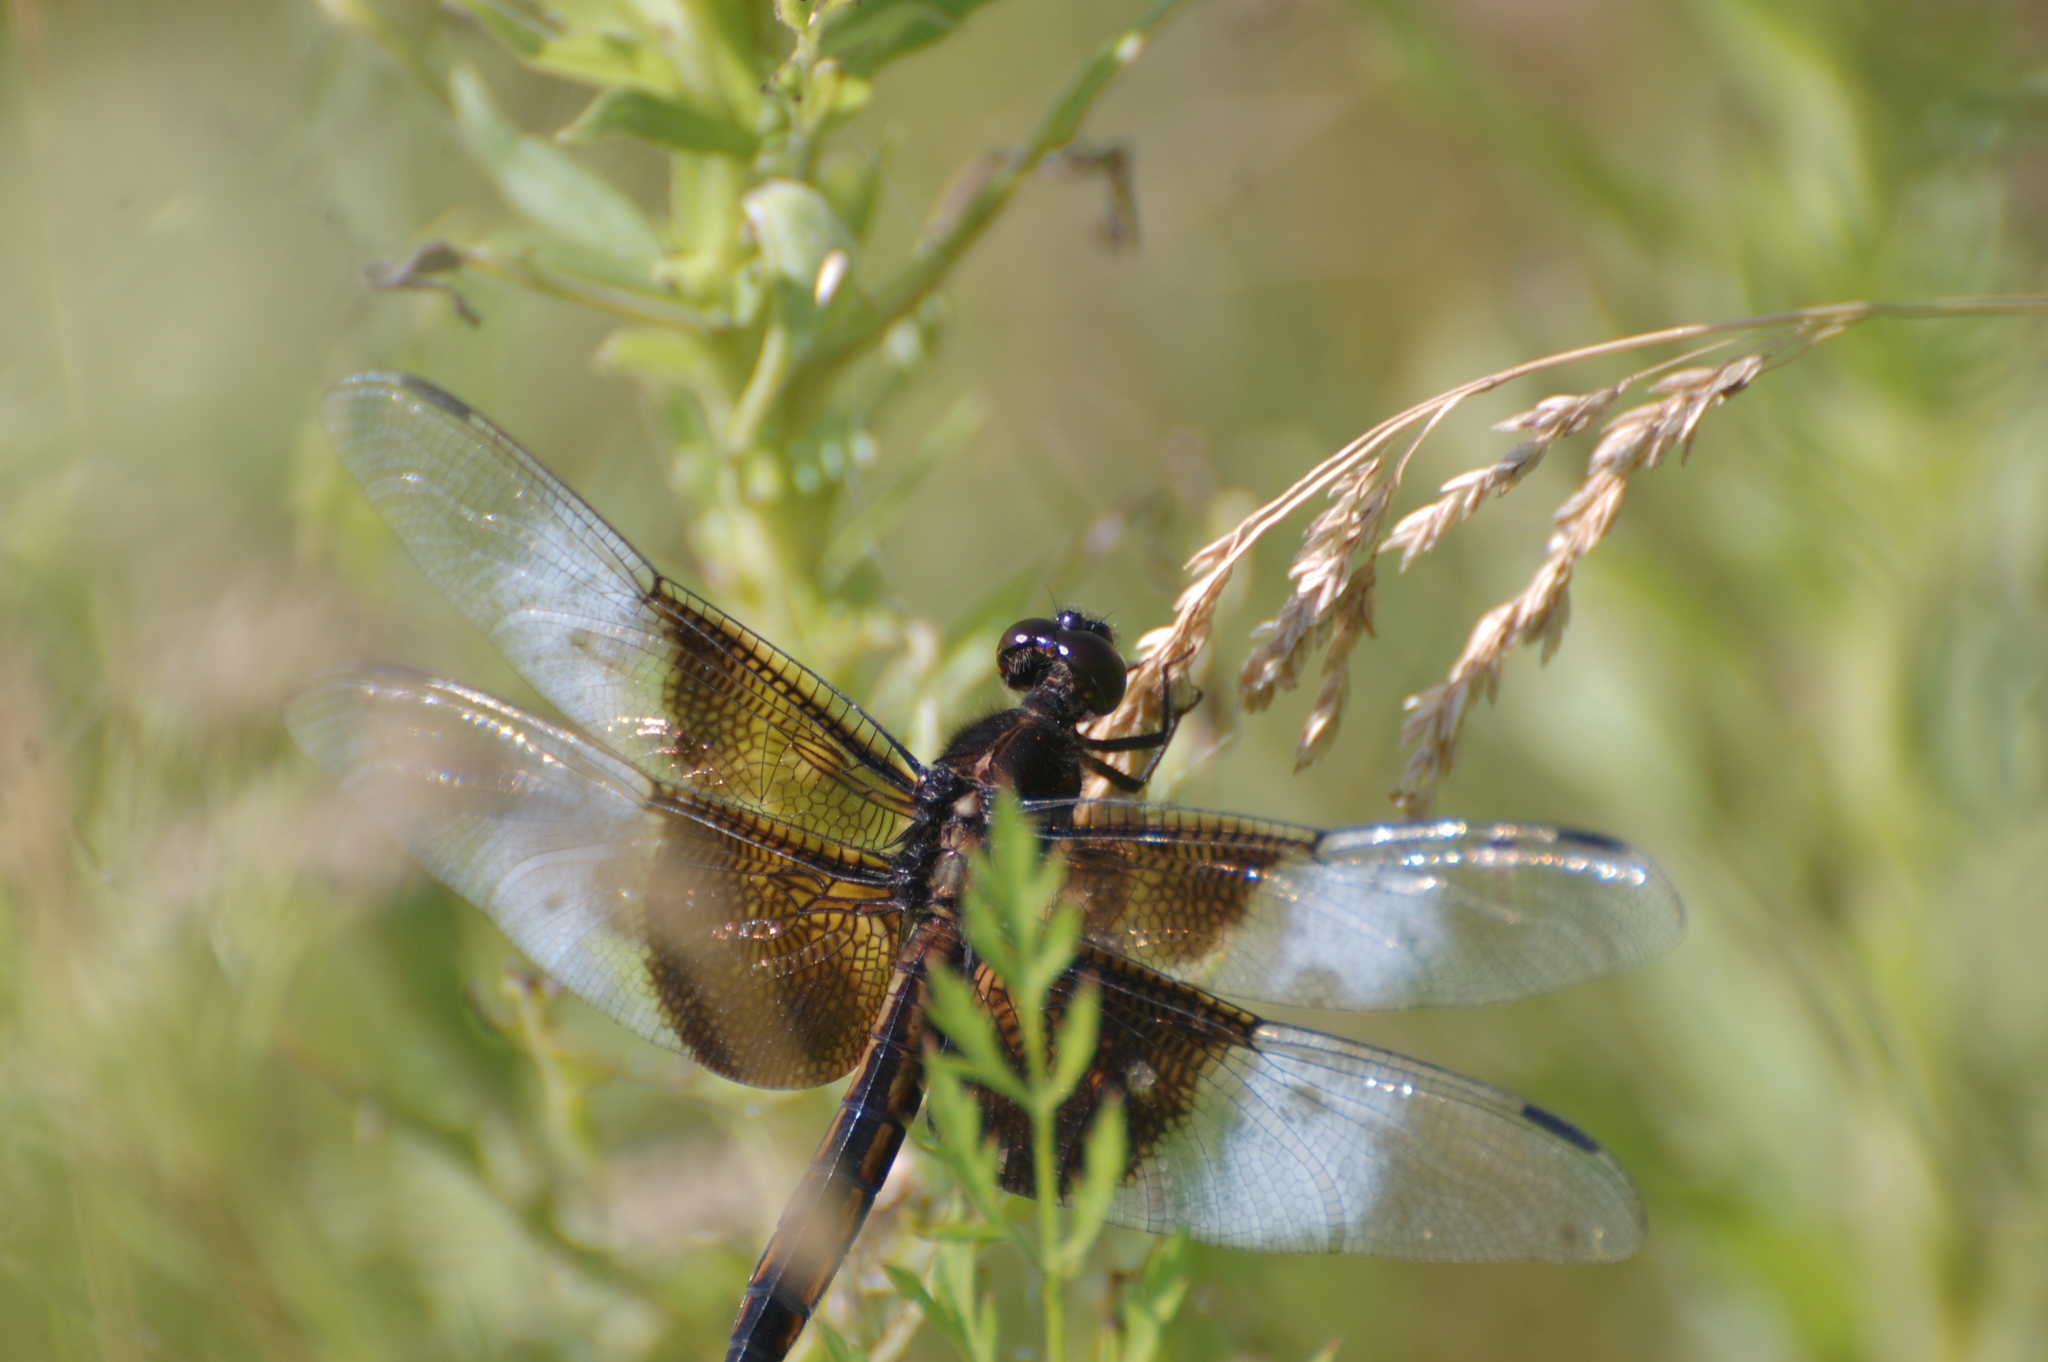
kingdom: Animalia
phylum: Arthropoda
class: Insecta
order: Odonata
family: Libellulidae
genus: Libellula
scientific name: Libellula luctuosa
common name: Widow skimmer
